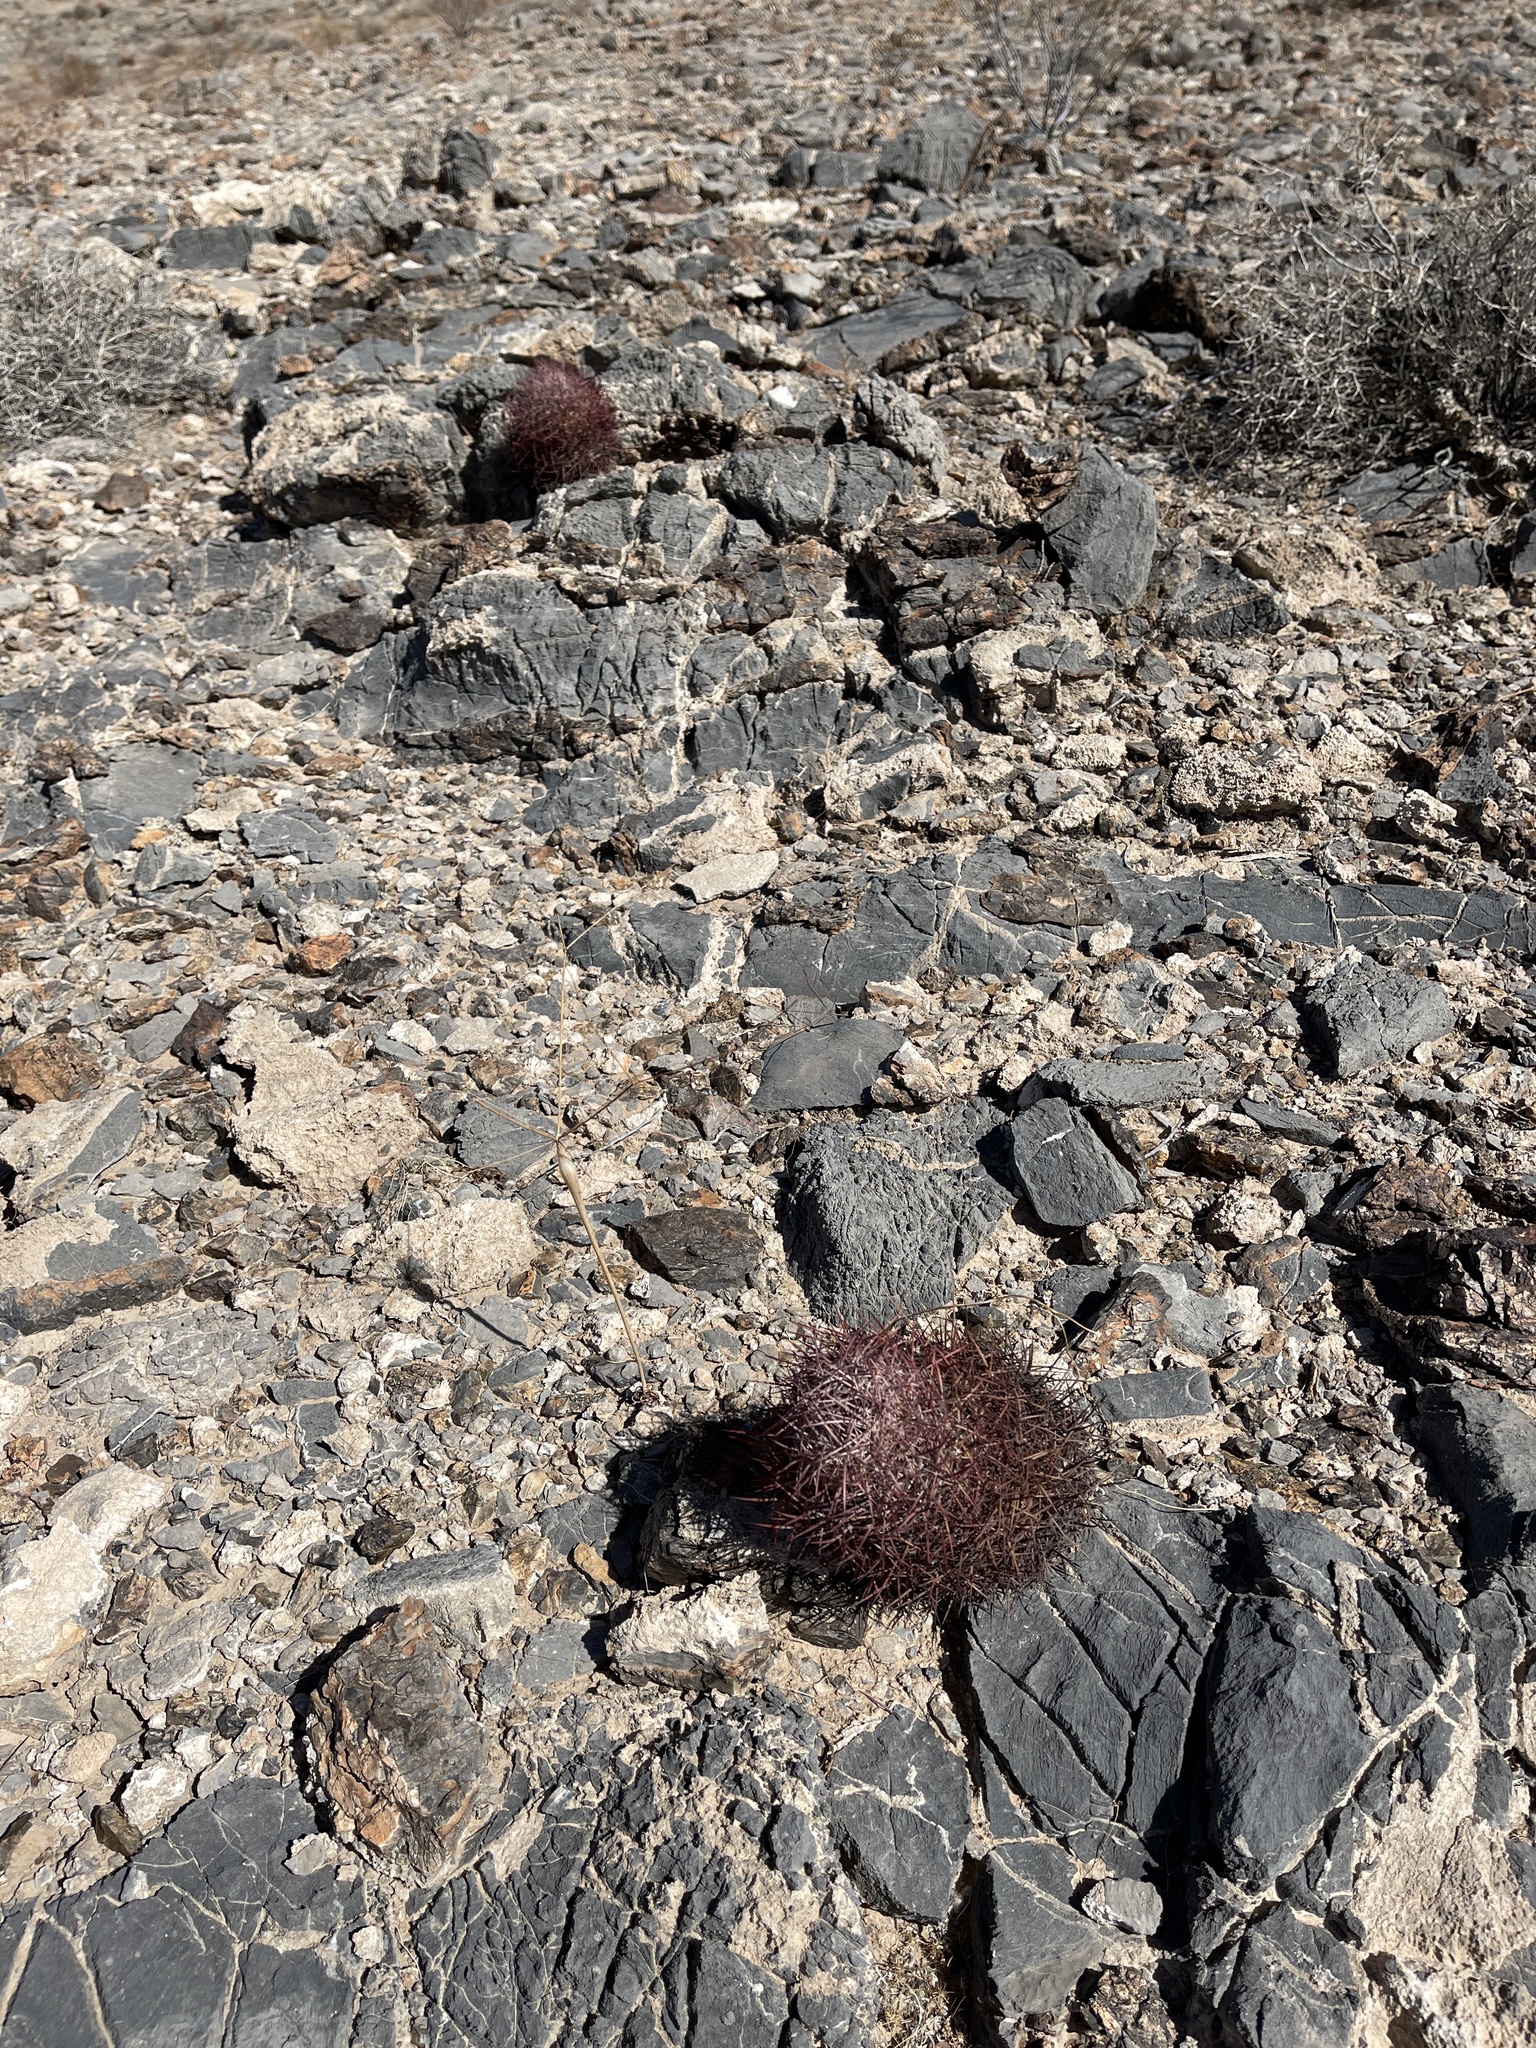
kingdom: Plantae
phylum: Tracheophyta
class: Magnoliopsida
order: Caryophyllales
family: Cactaceae
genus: Sclerocactus
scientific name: Sclerocactus johnsonii
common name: Eight-spine fishhook cactus
